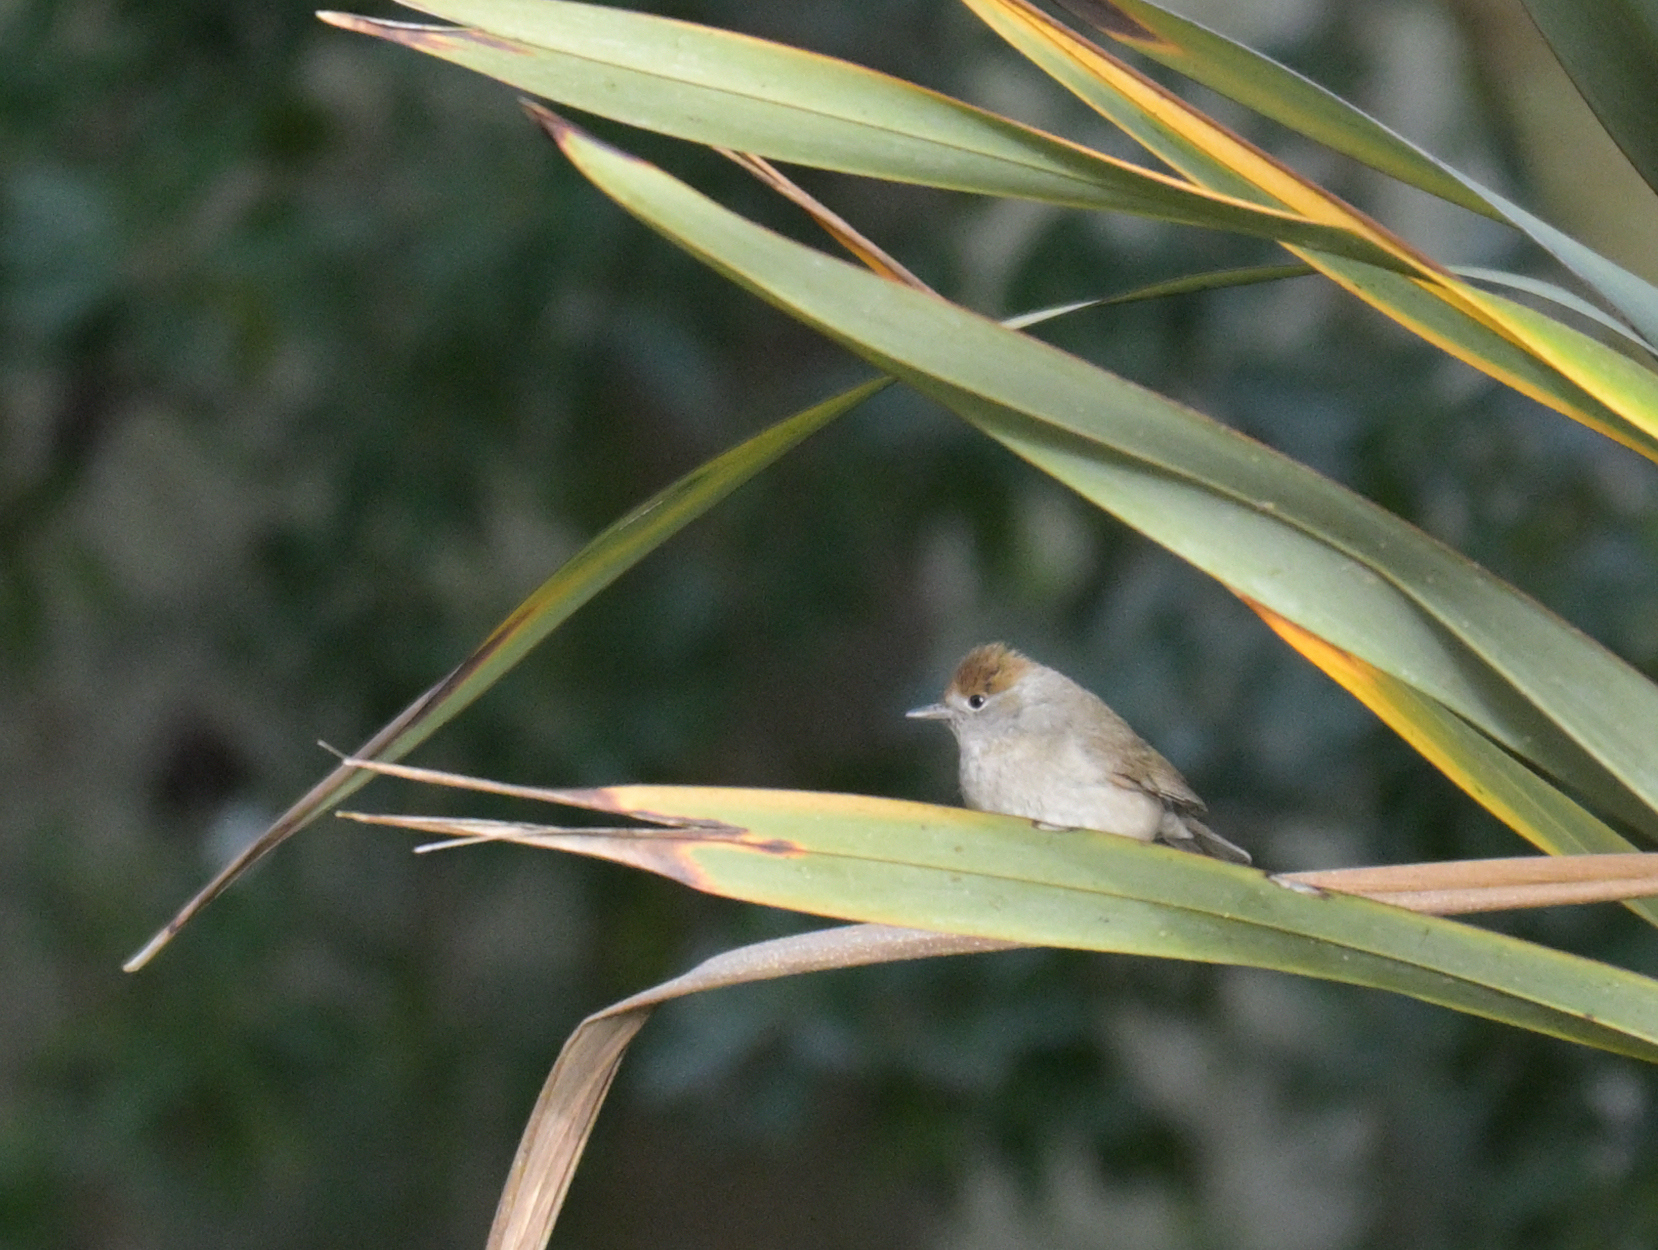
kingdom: Animalia
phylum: Chordata
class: Aves
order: Passeriformes
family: Sylviidae
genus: Sylvia
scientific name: Sylvia atricapilla
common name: Eurasian blackcap
